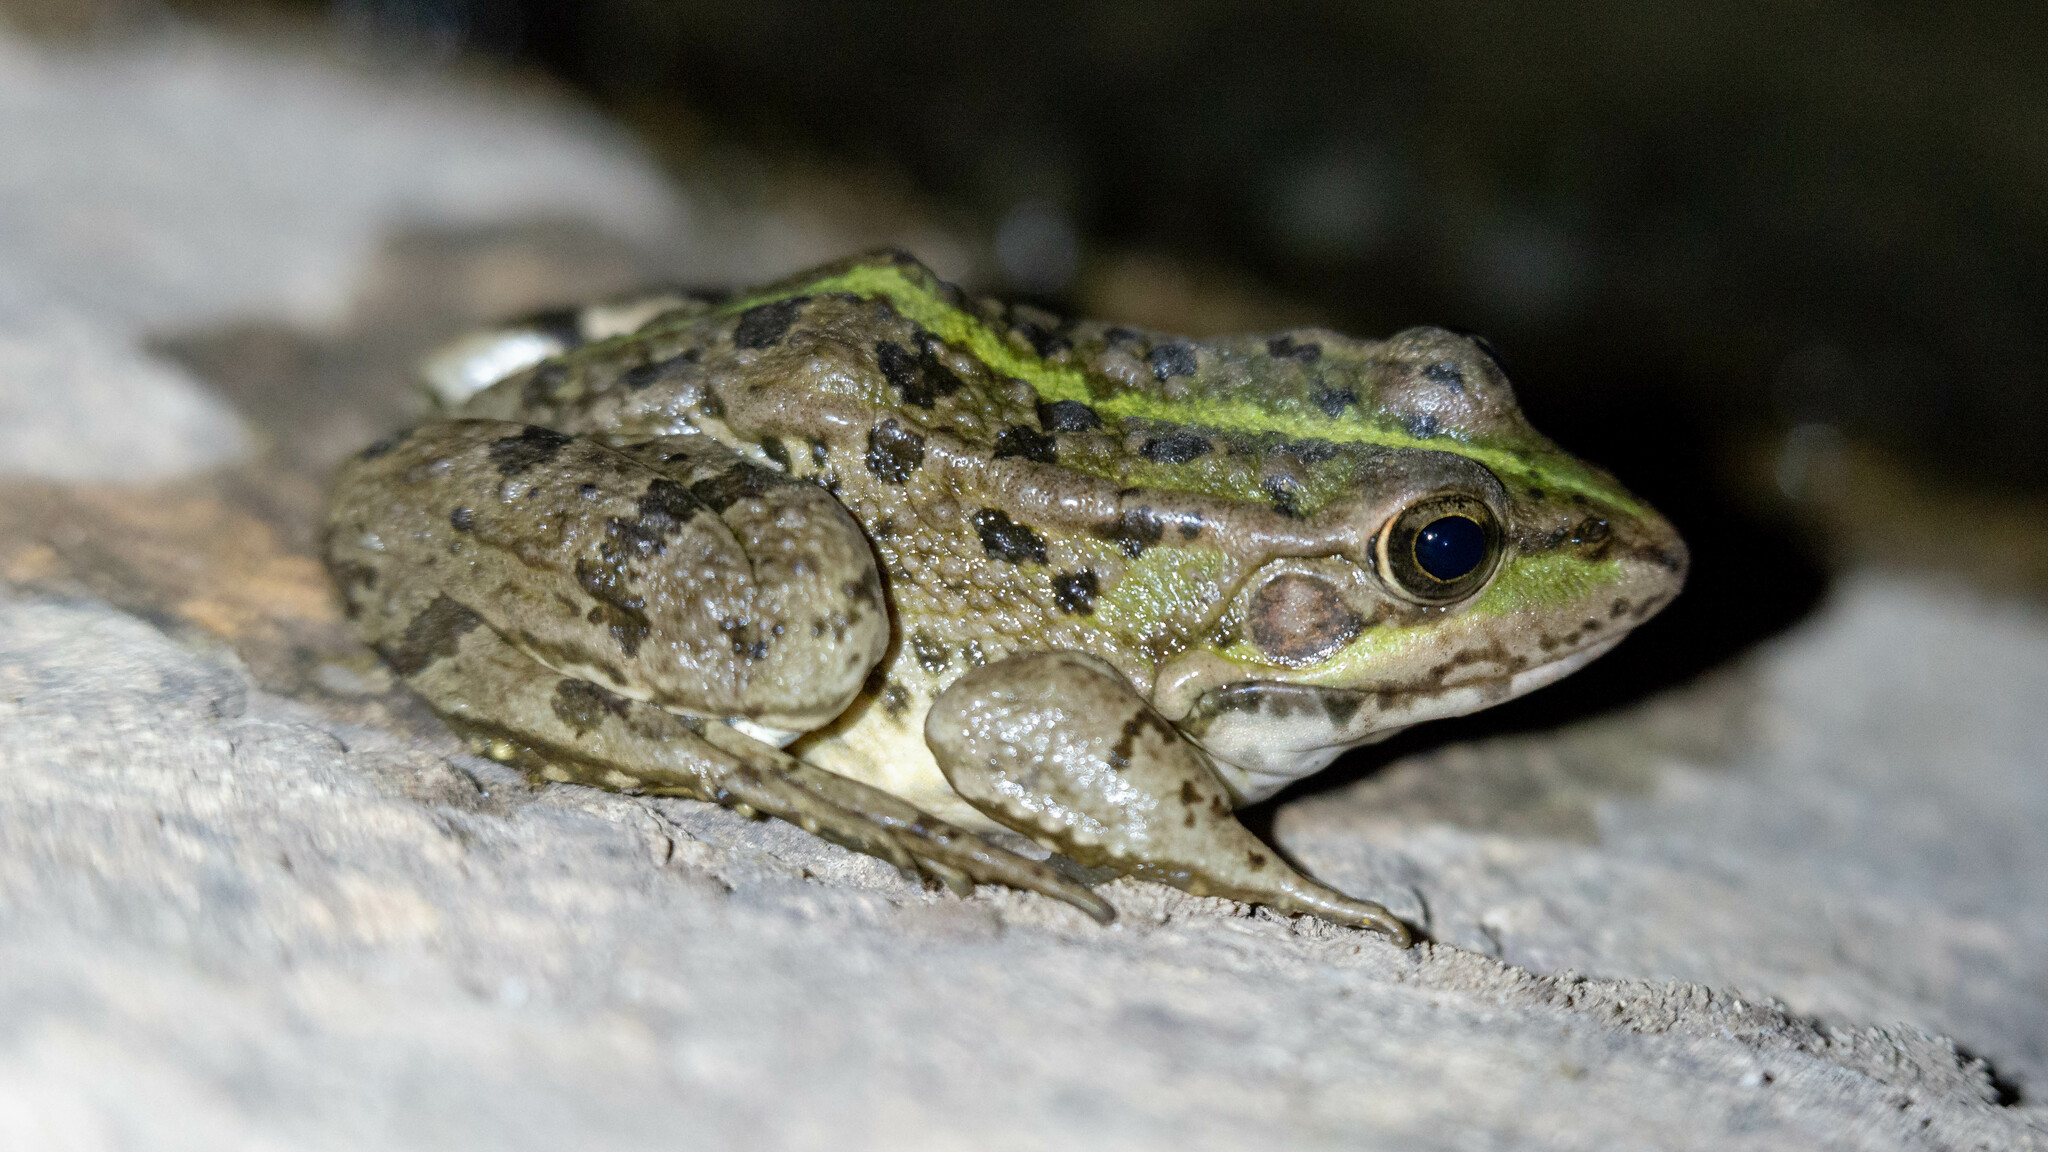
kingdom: Animalia
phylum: Chordata
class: Amphibia
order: Anura
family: Ranidae
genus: Pelophylax
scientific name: Pelophylax perezi
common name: Perez's frog
